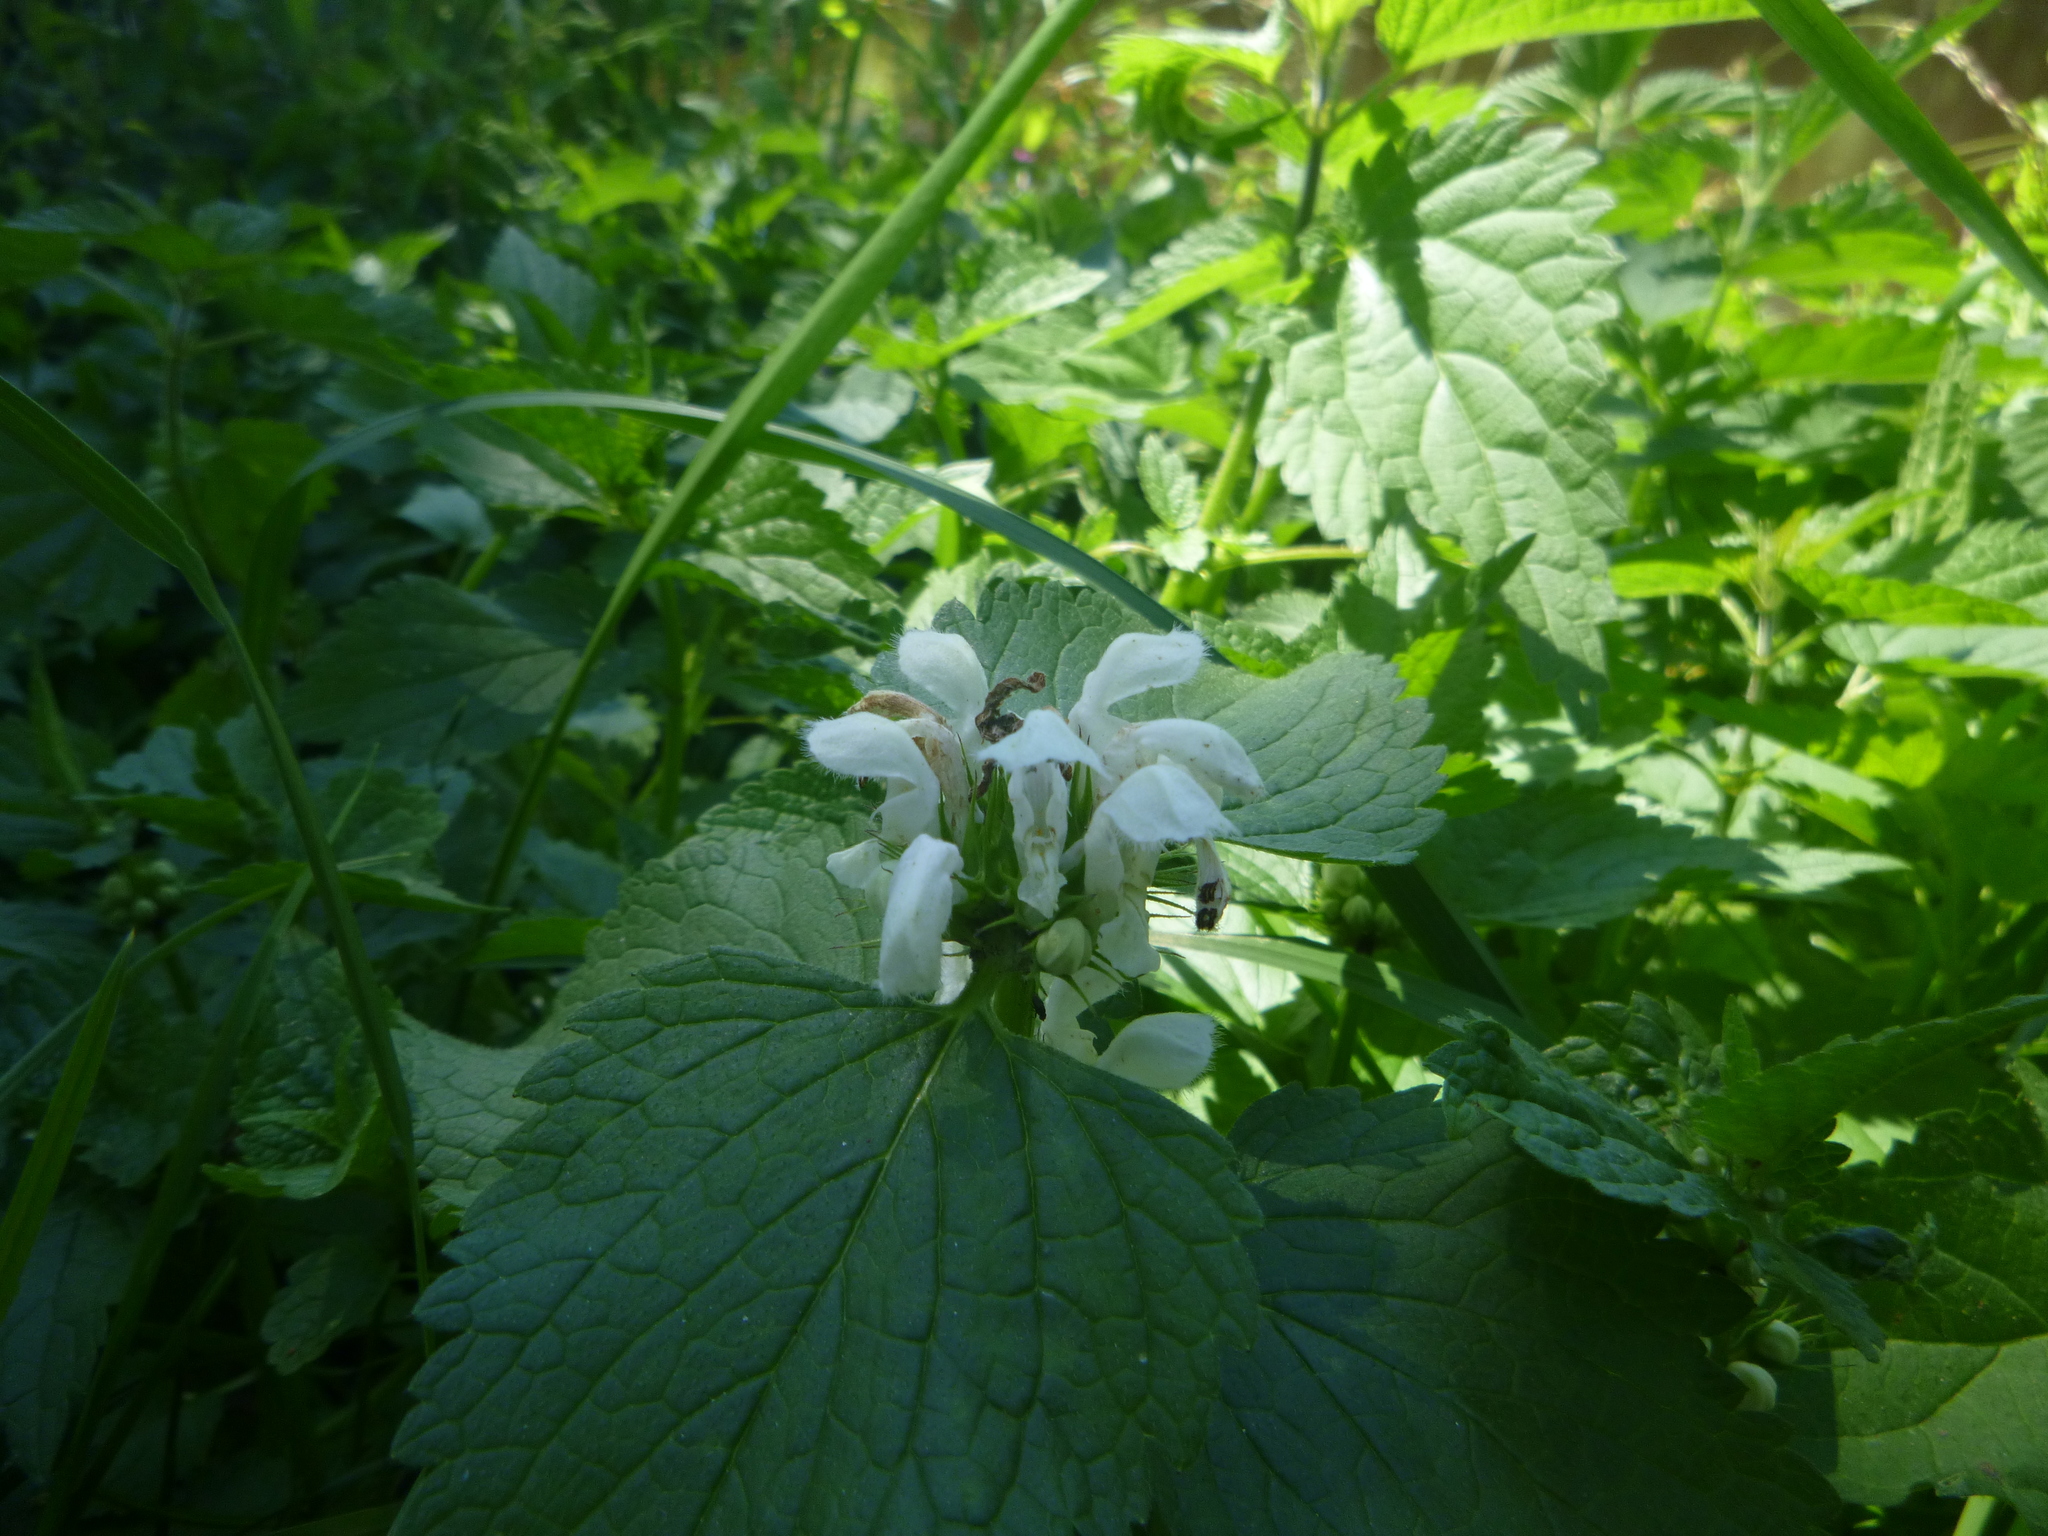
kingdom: Plantae
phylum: Tracheophyta
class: Magnoliopsida
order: Lamiales
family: Lamiaceae
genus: Lamium
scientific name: Lamium album
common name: White dead-nettle
